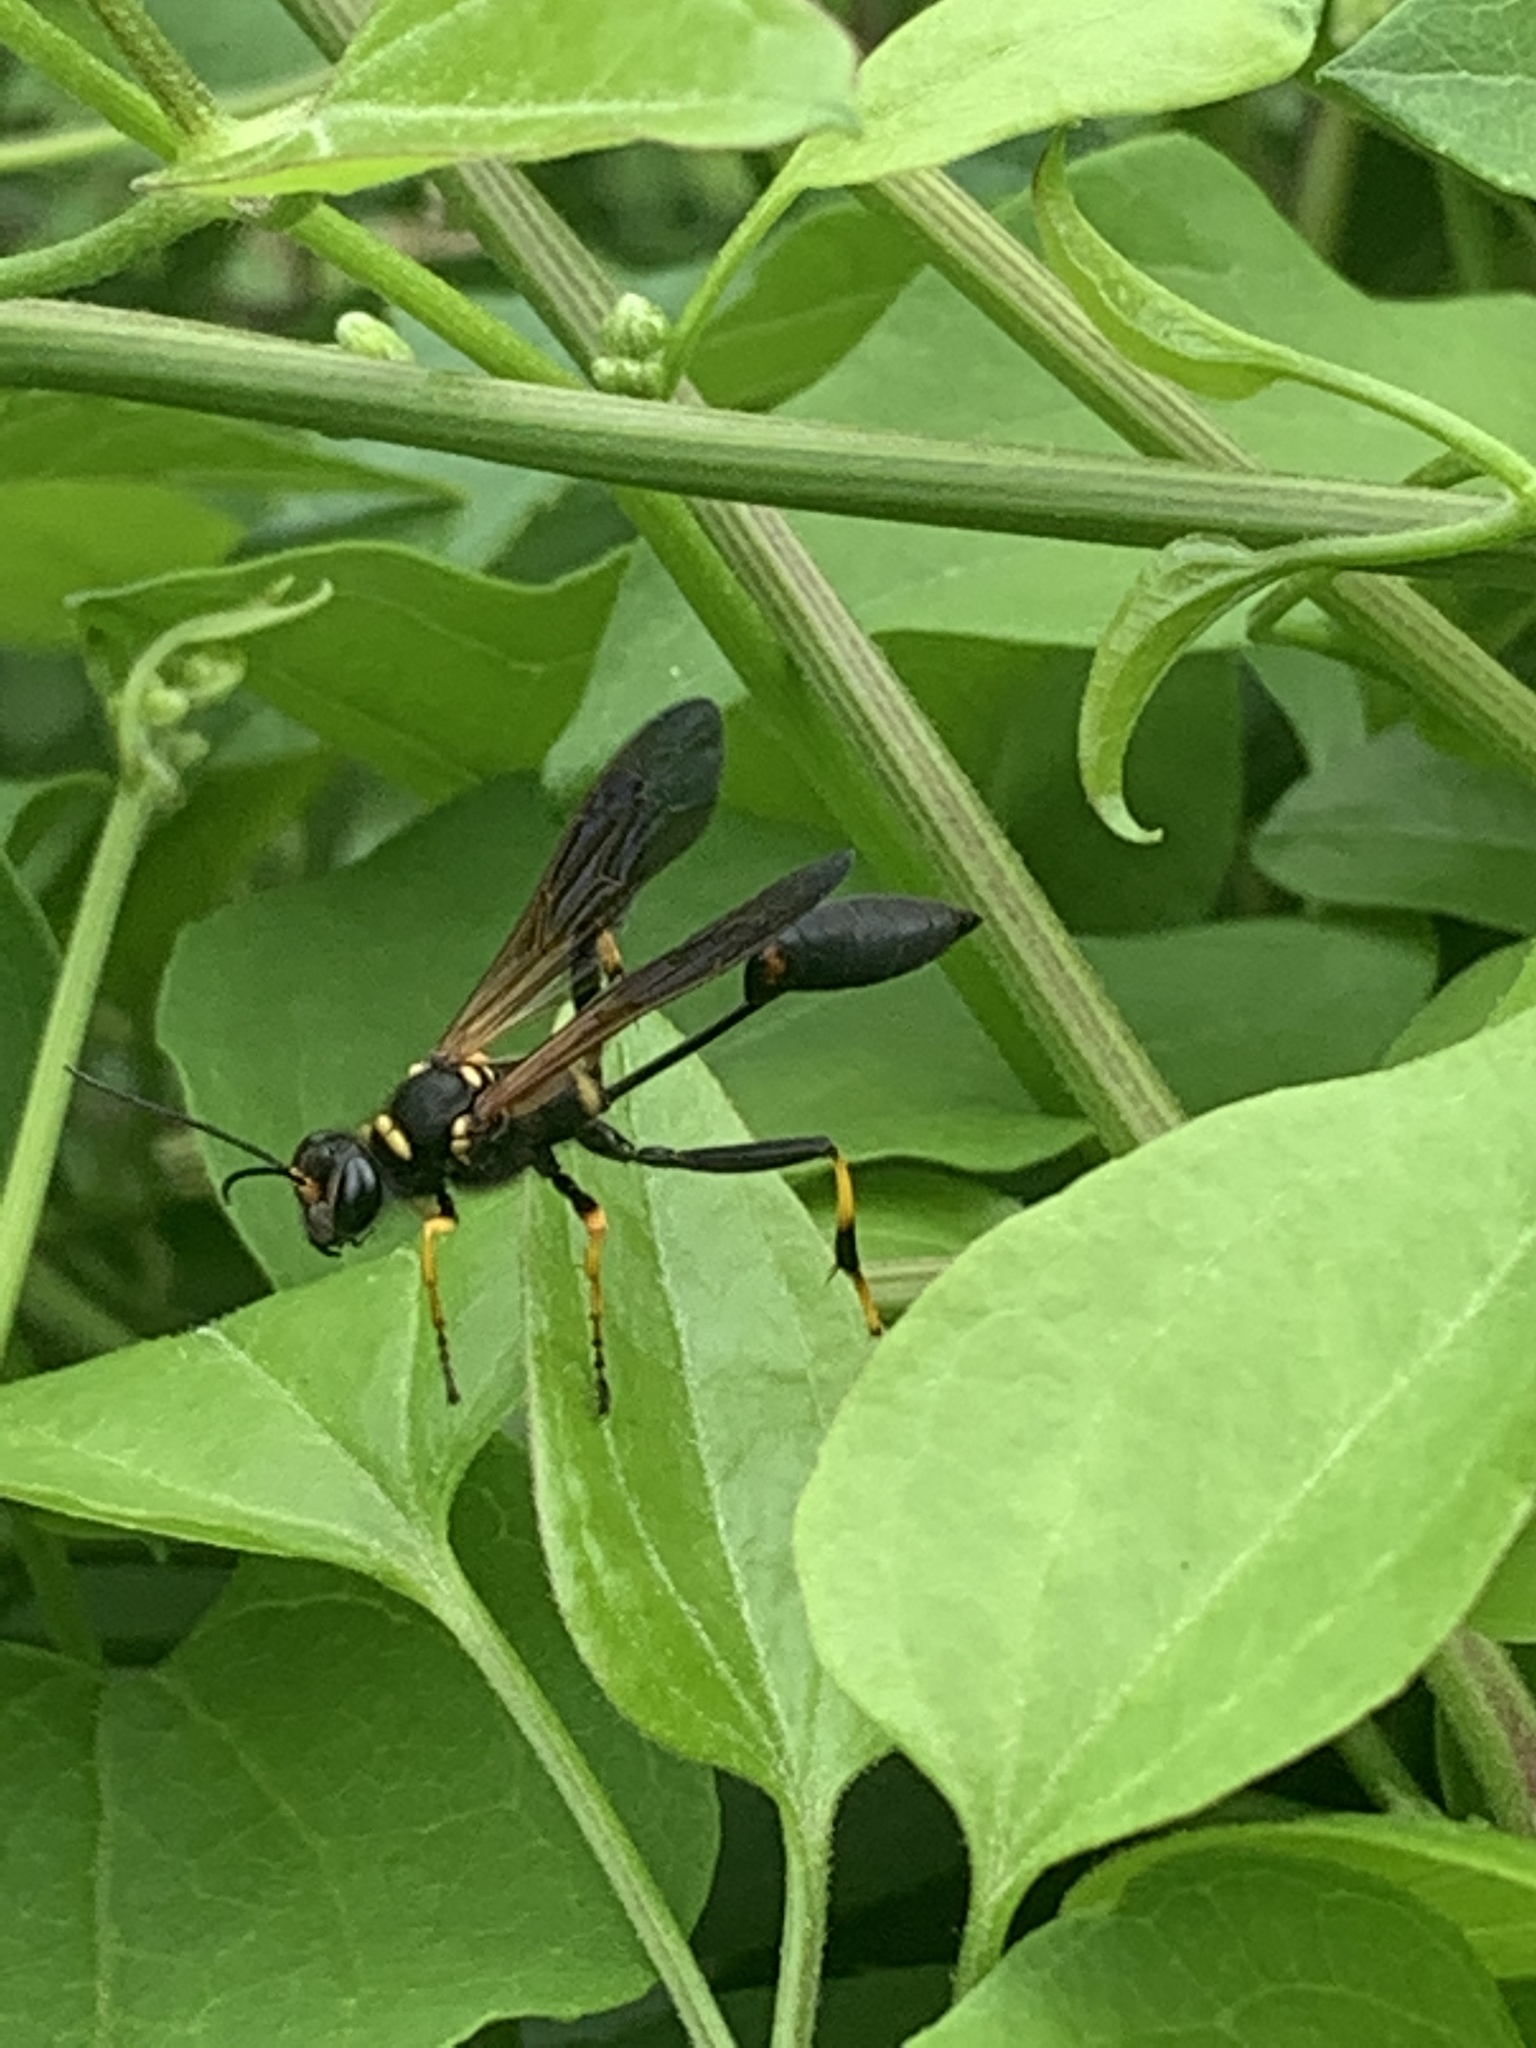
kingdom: Animalia
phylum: Arthropoda
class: Insecta
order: Hymenoptera
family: Sphecidae
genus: Sceliphron
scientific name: Sceliphron caementarium
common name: Mud dauber
